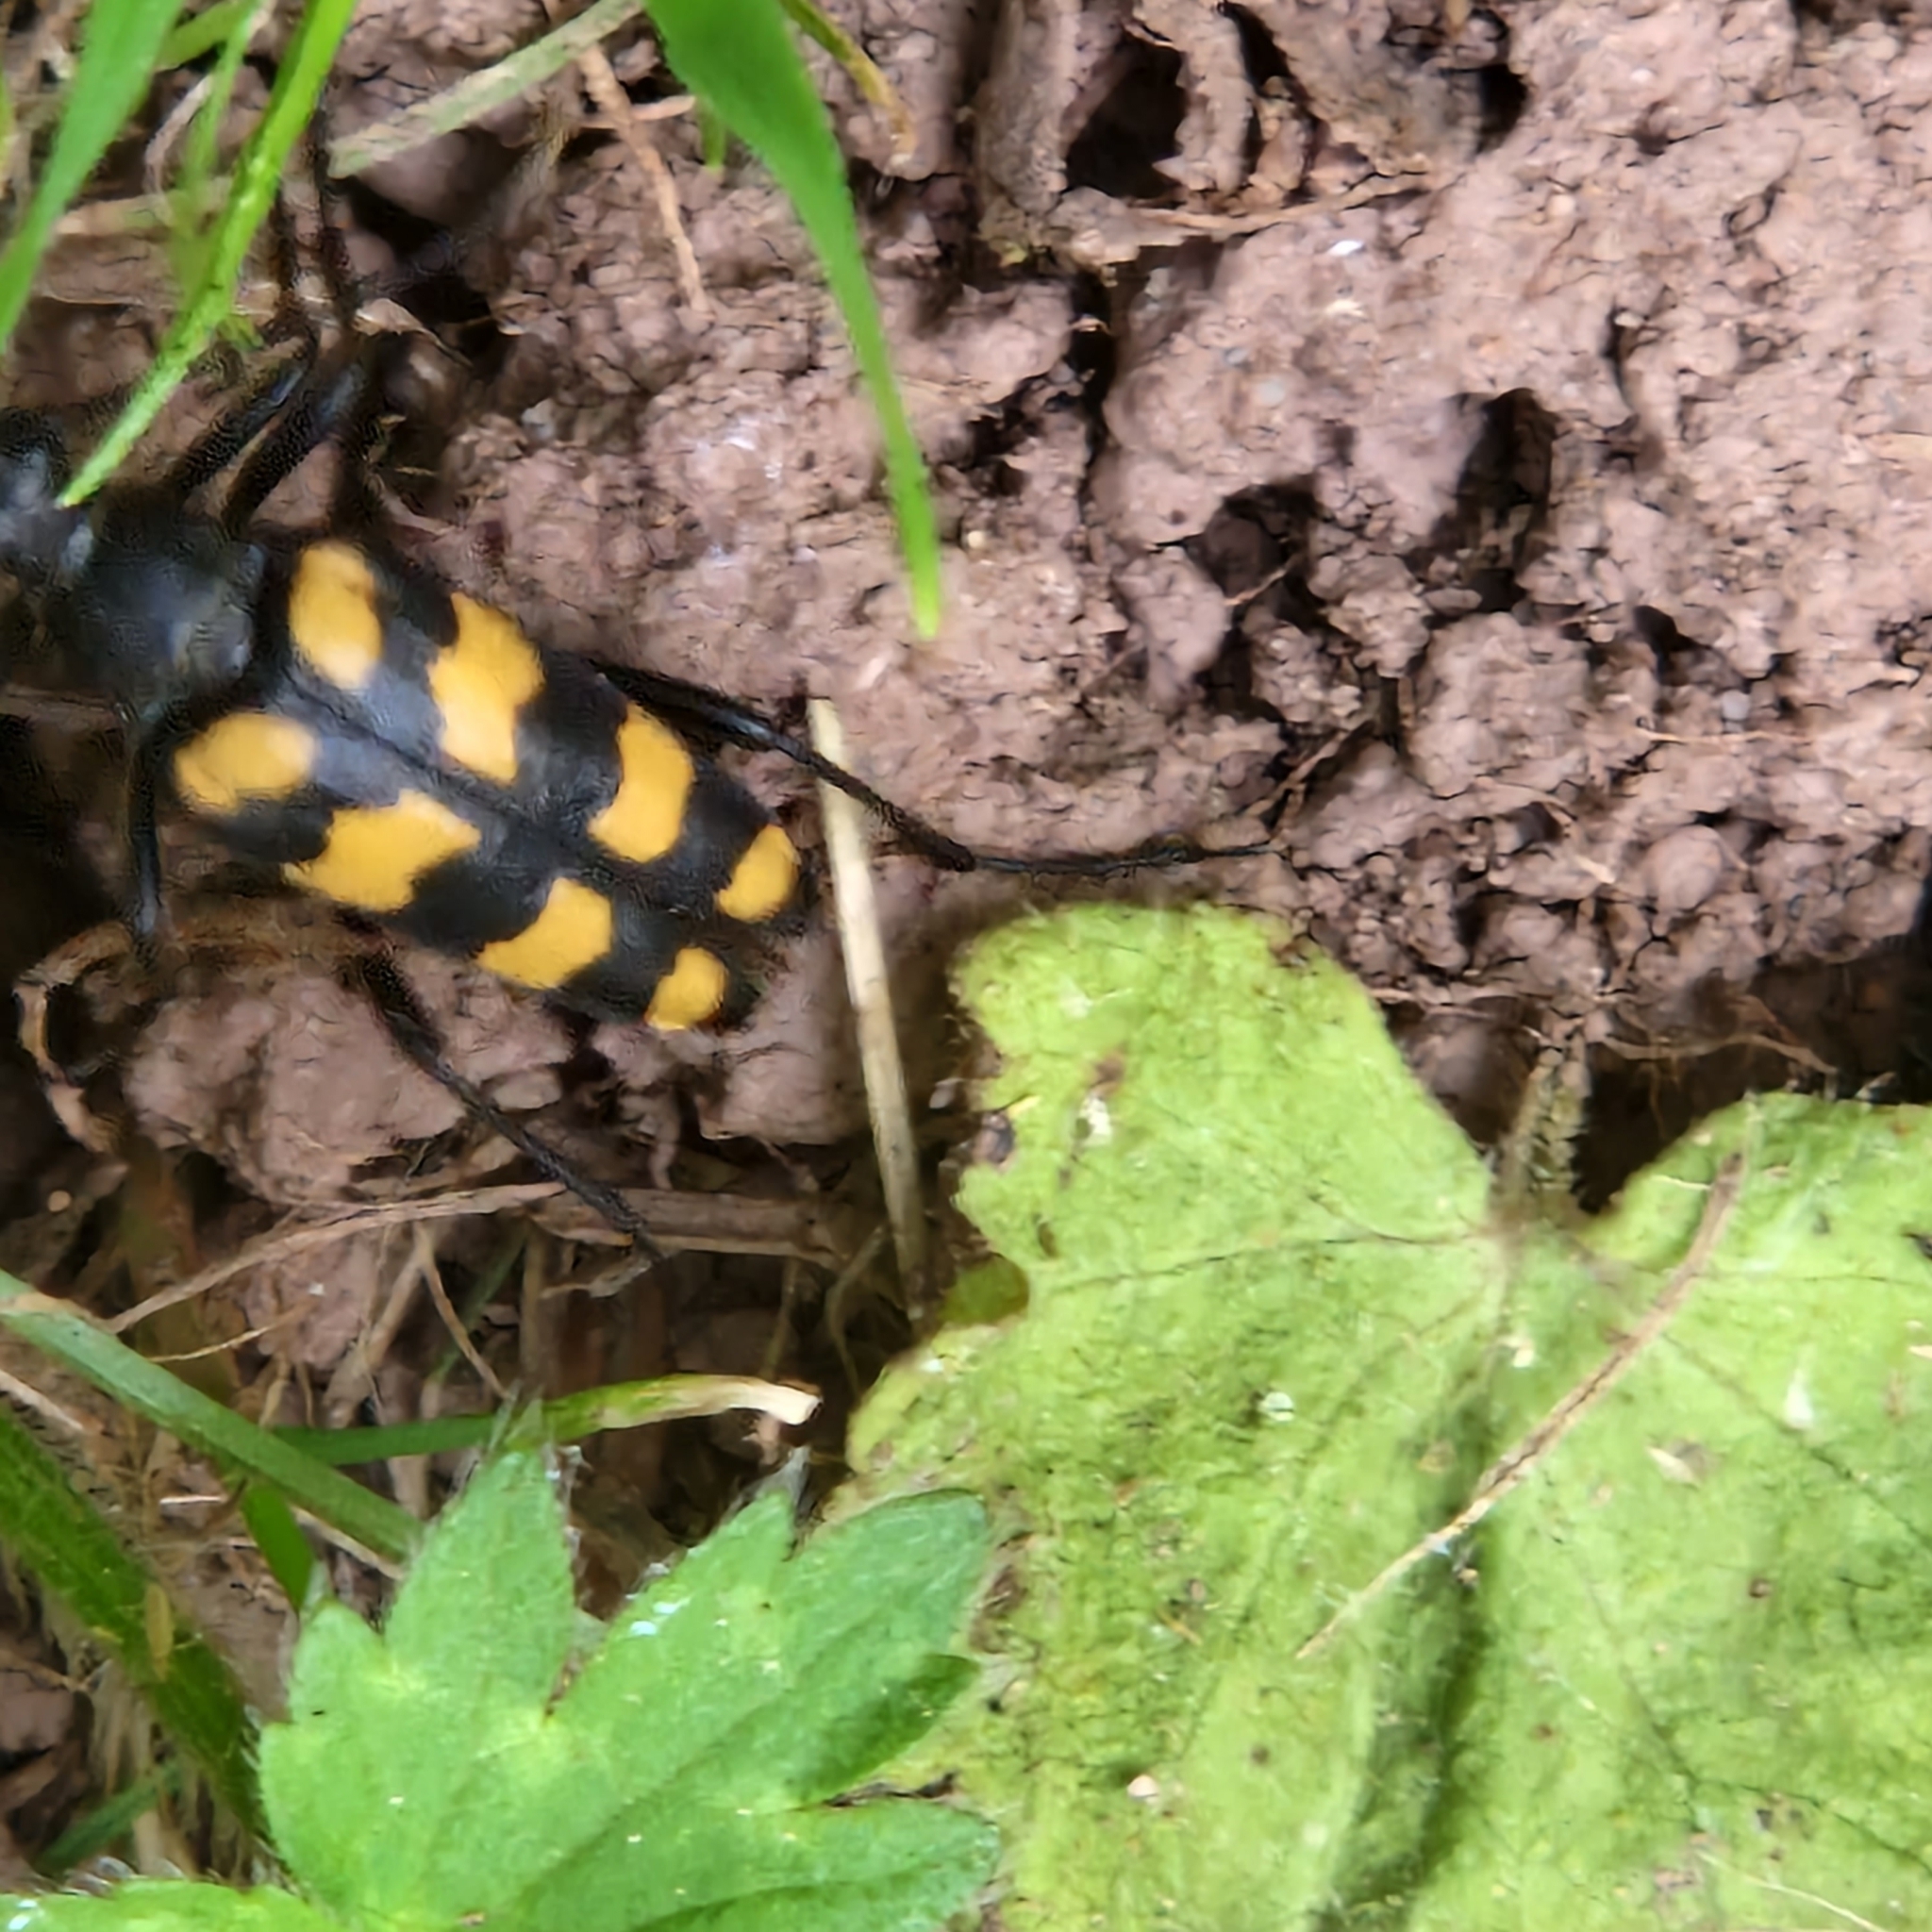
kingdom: Animalia
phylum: Arthropoda
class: Insecta
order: Coleoptera
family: Cerambycidae
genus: Leptura
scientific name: Leptura quadrifasciata
